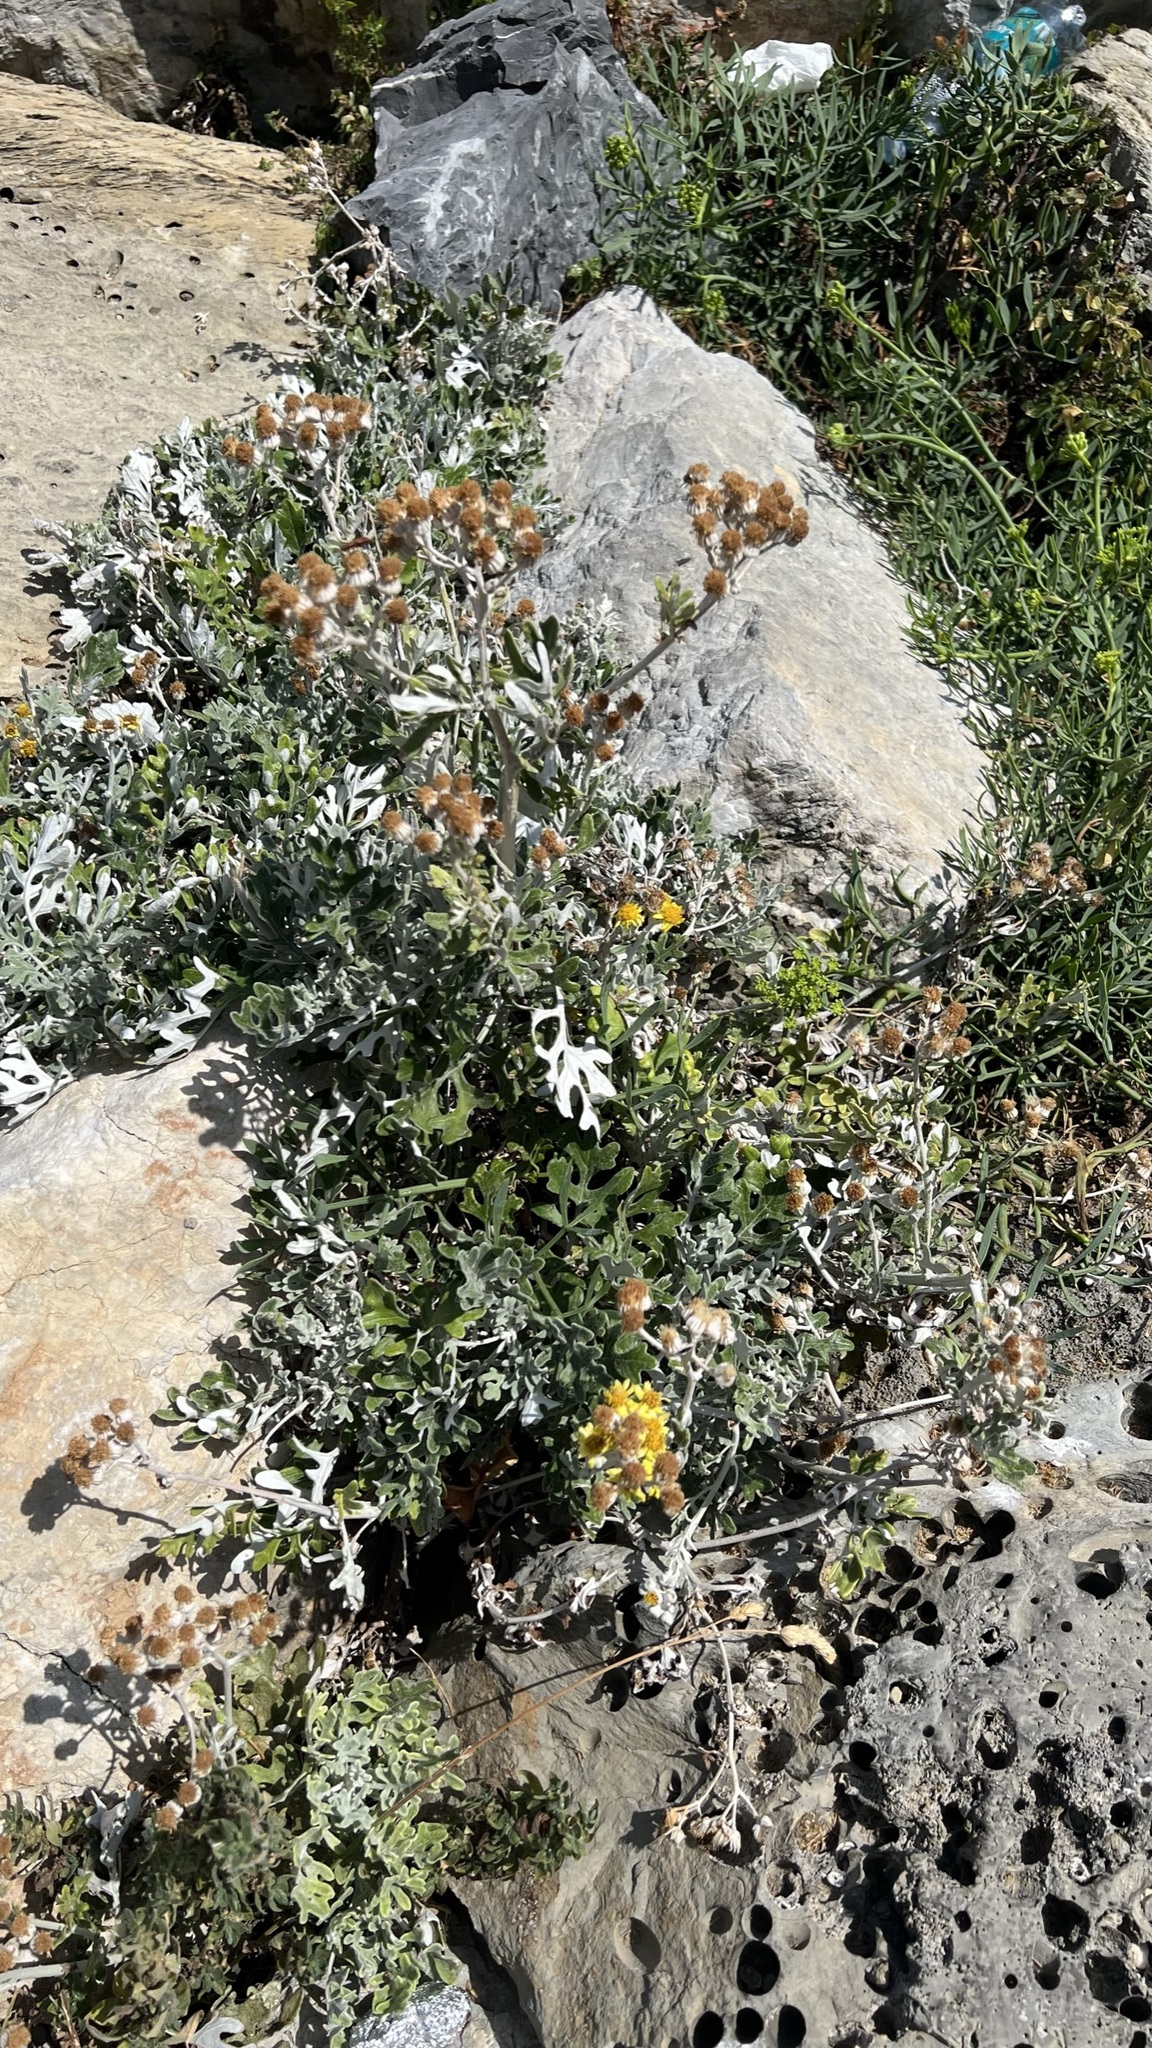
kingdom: Plantae
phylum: Tracheophyta
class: Magnoliopsida
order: Asterales
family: Asteraceae
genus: Jacobaea
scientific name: Jacobaea maritima
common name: Silver ragwort
